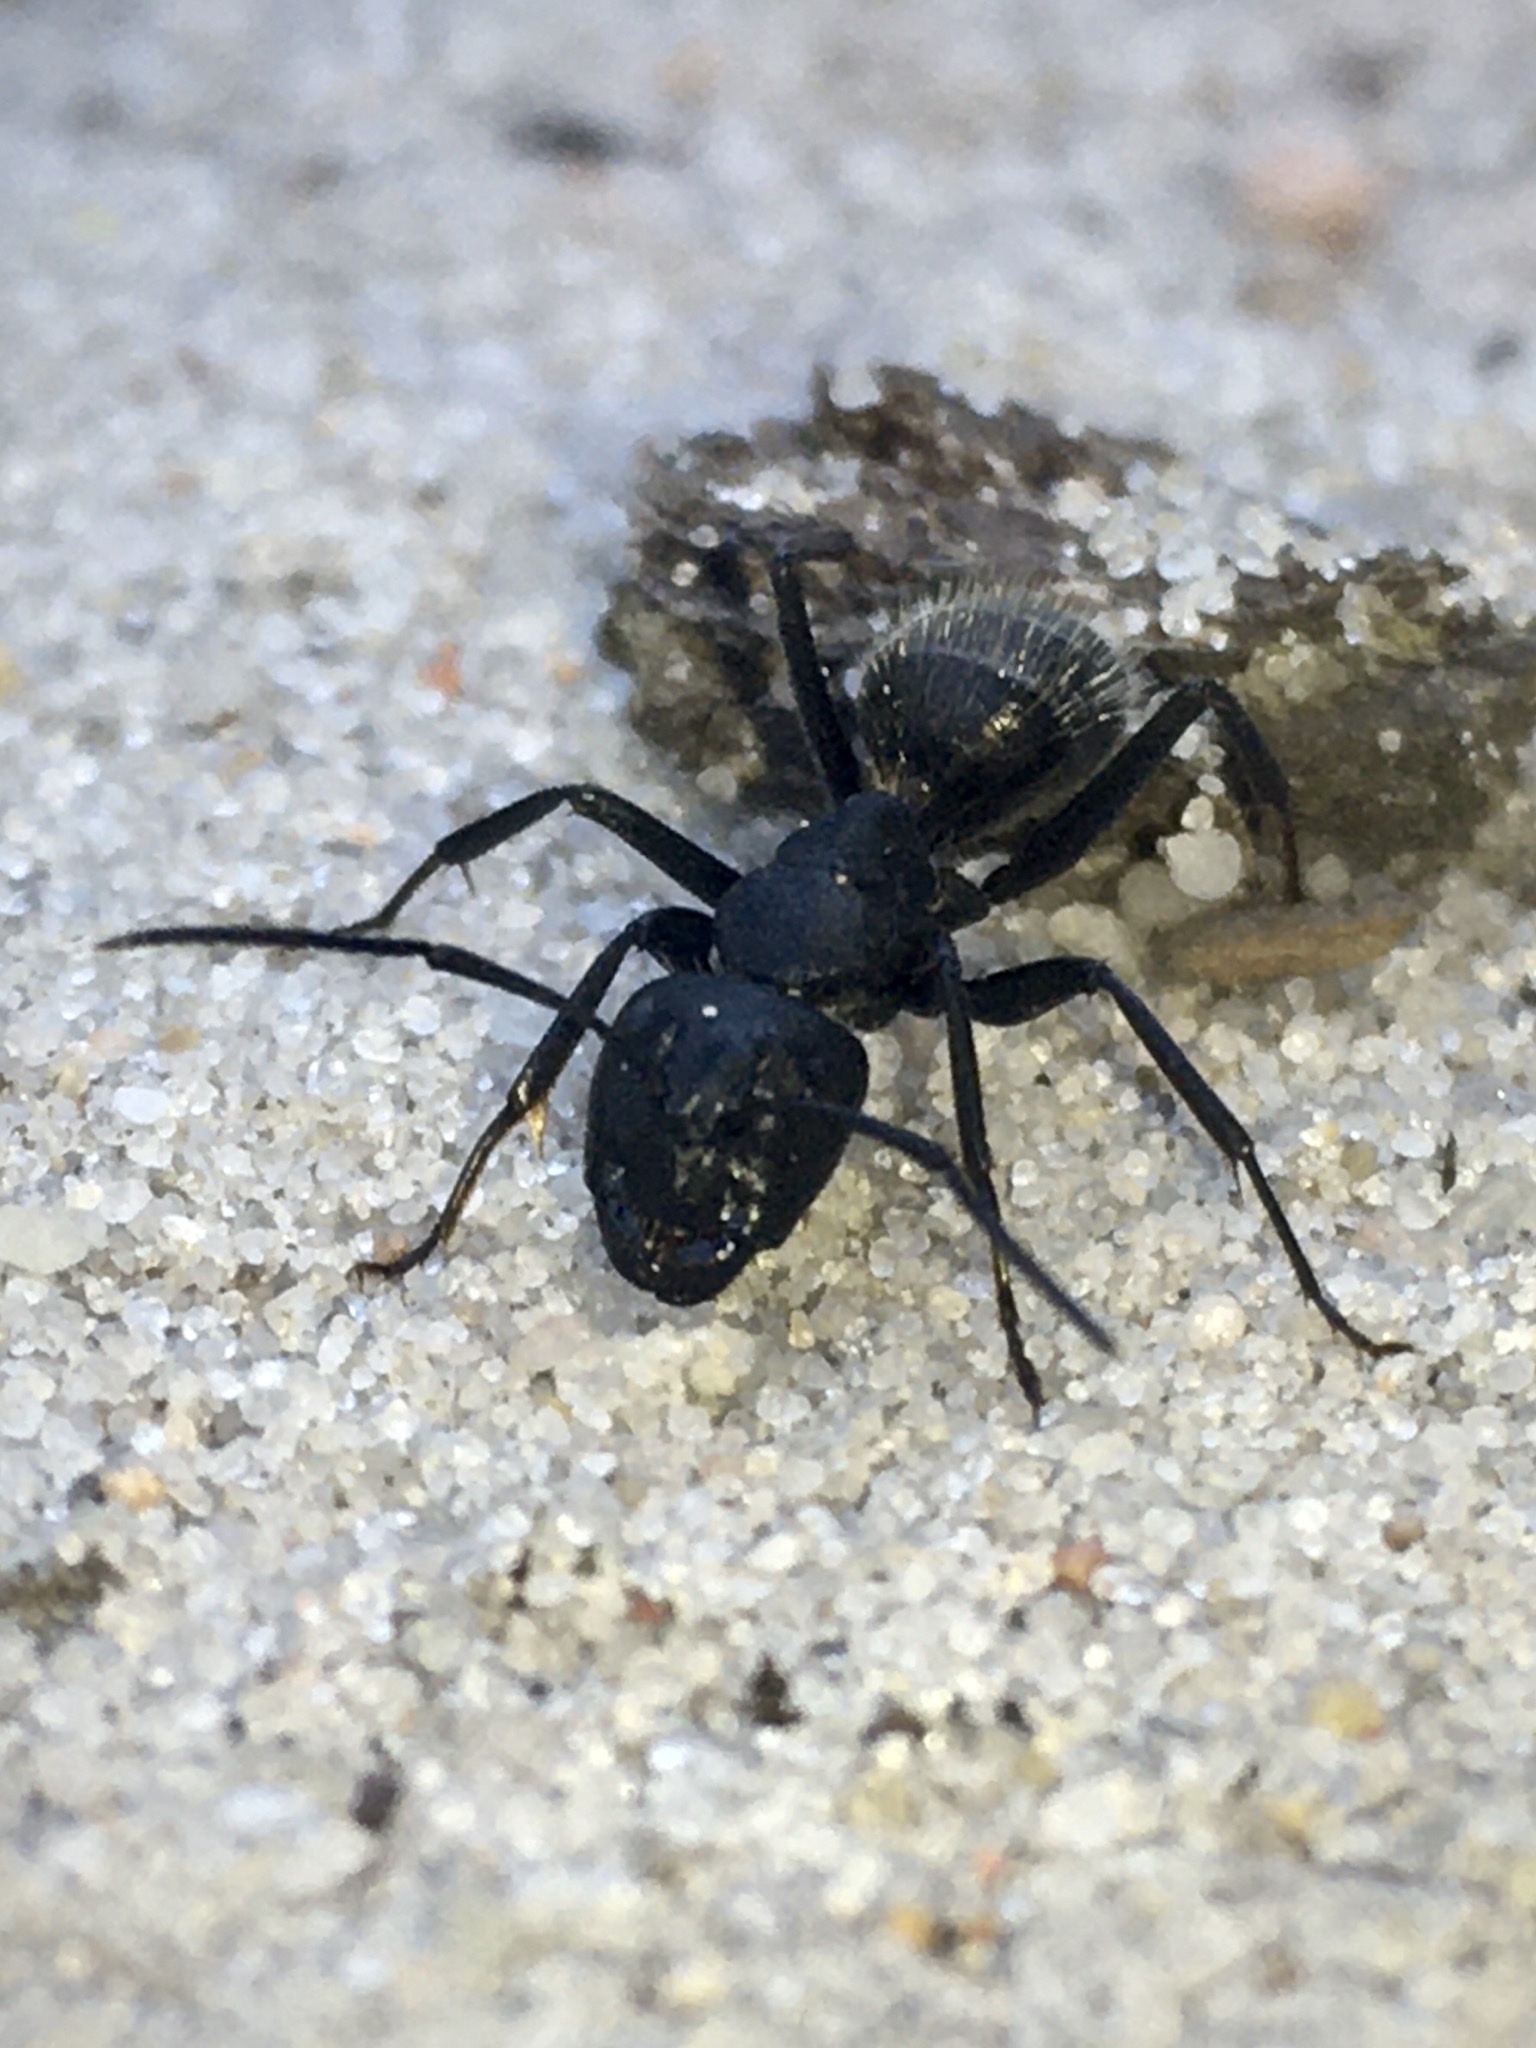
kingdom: Animalia
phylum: Arthropoda
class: Insecta
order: Hymenoptera
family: Formicidae
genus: Camponotus
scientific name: Camponotus vagus
